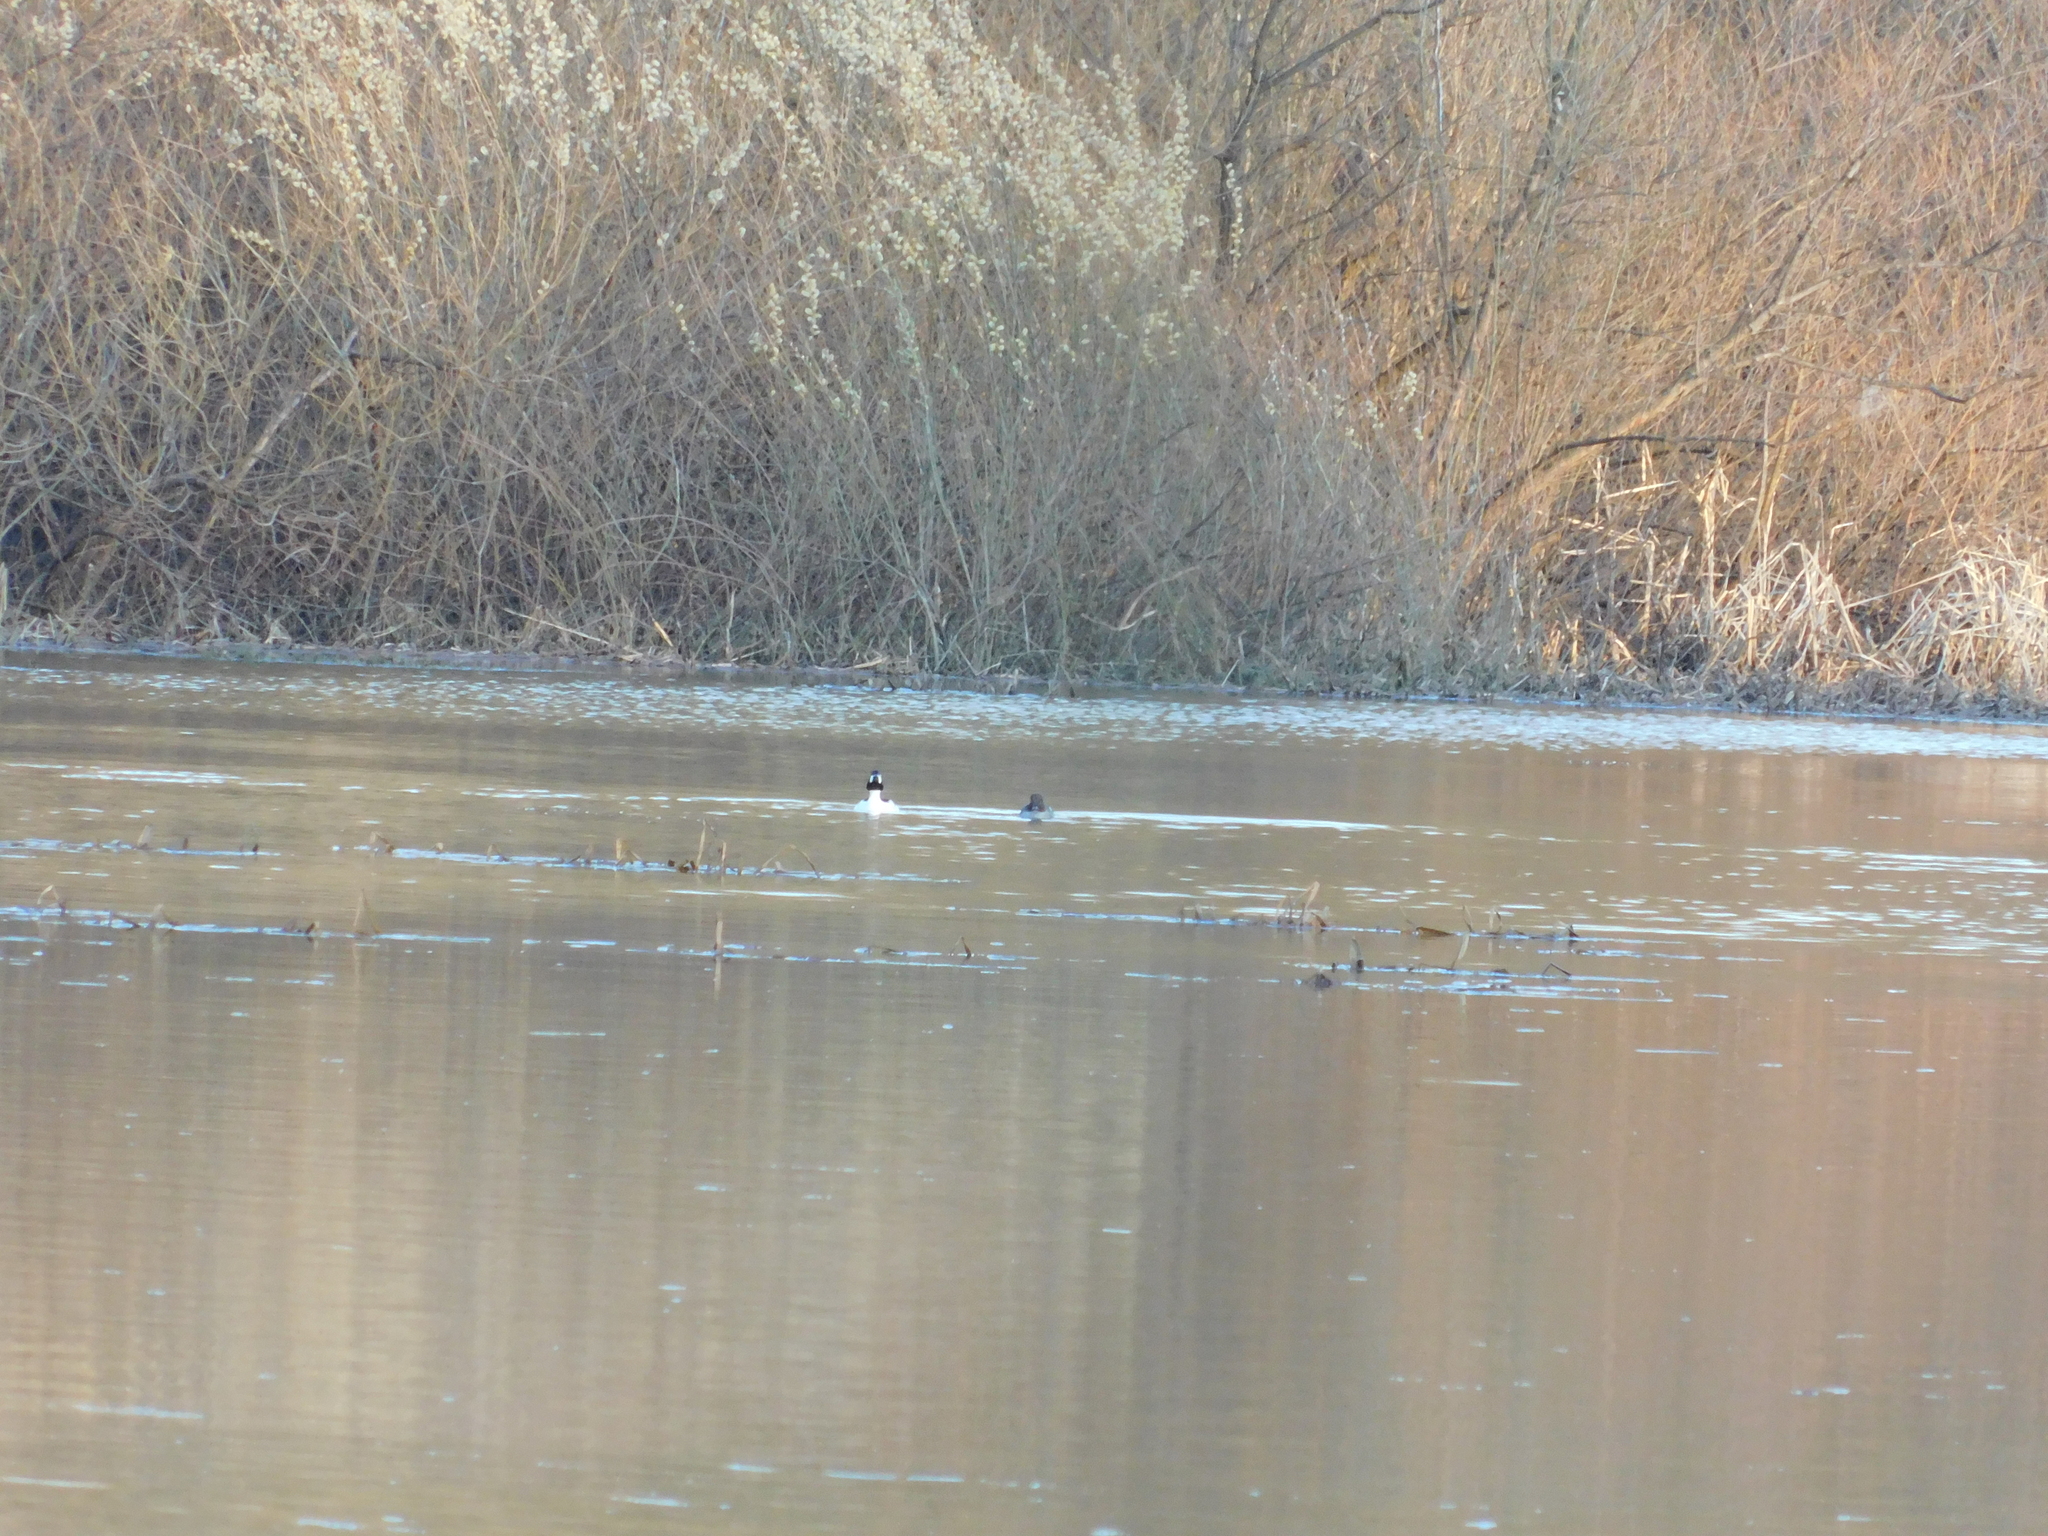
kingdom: Animalia
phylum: Chordata
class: Aves
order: Anseriformes
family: Anatidae
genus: Bucephala
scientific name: Bucephala clangula
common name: Common goldeneye
